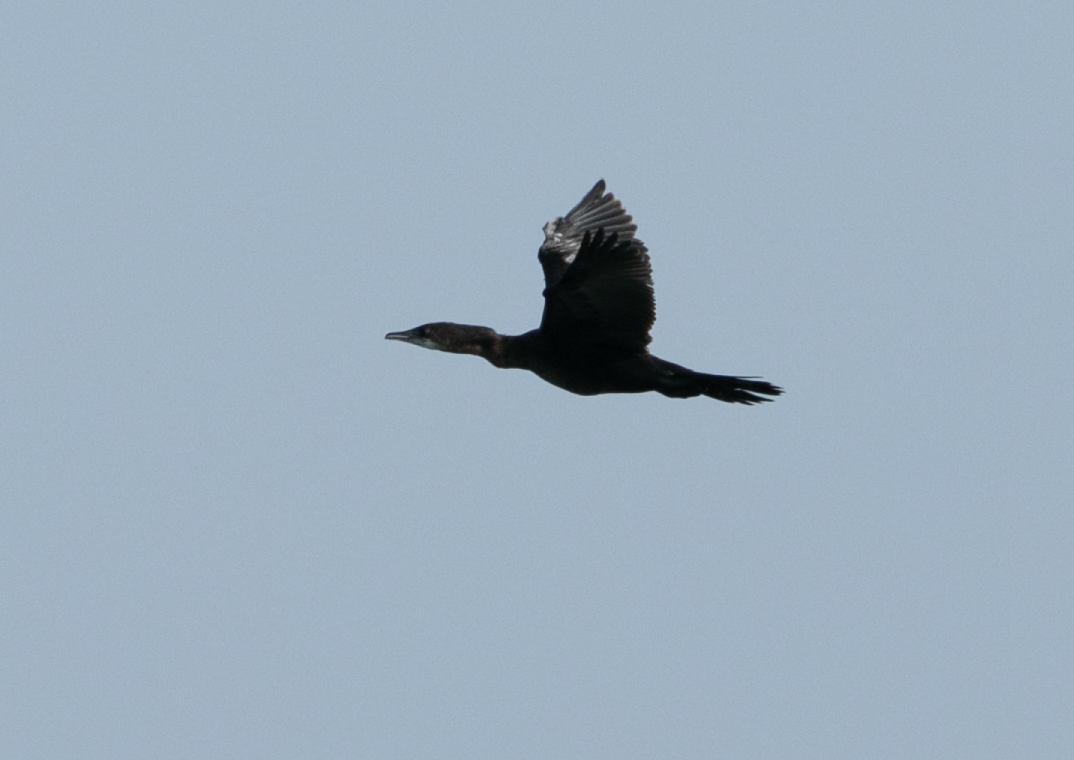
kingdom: Animalia
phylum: Chordata
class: Aves
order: Suliformes
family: Phalacrocoracidae
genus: Microcarbo
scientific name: Microcarbo pygmaeus
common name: Pygmy cormorant
